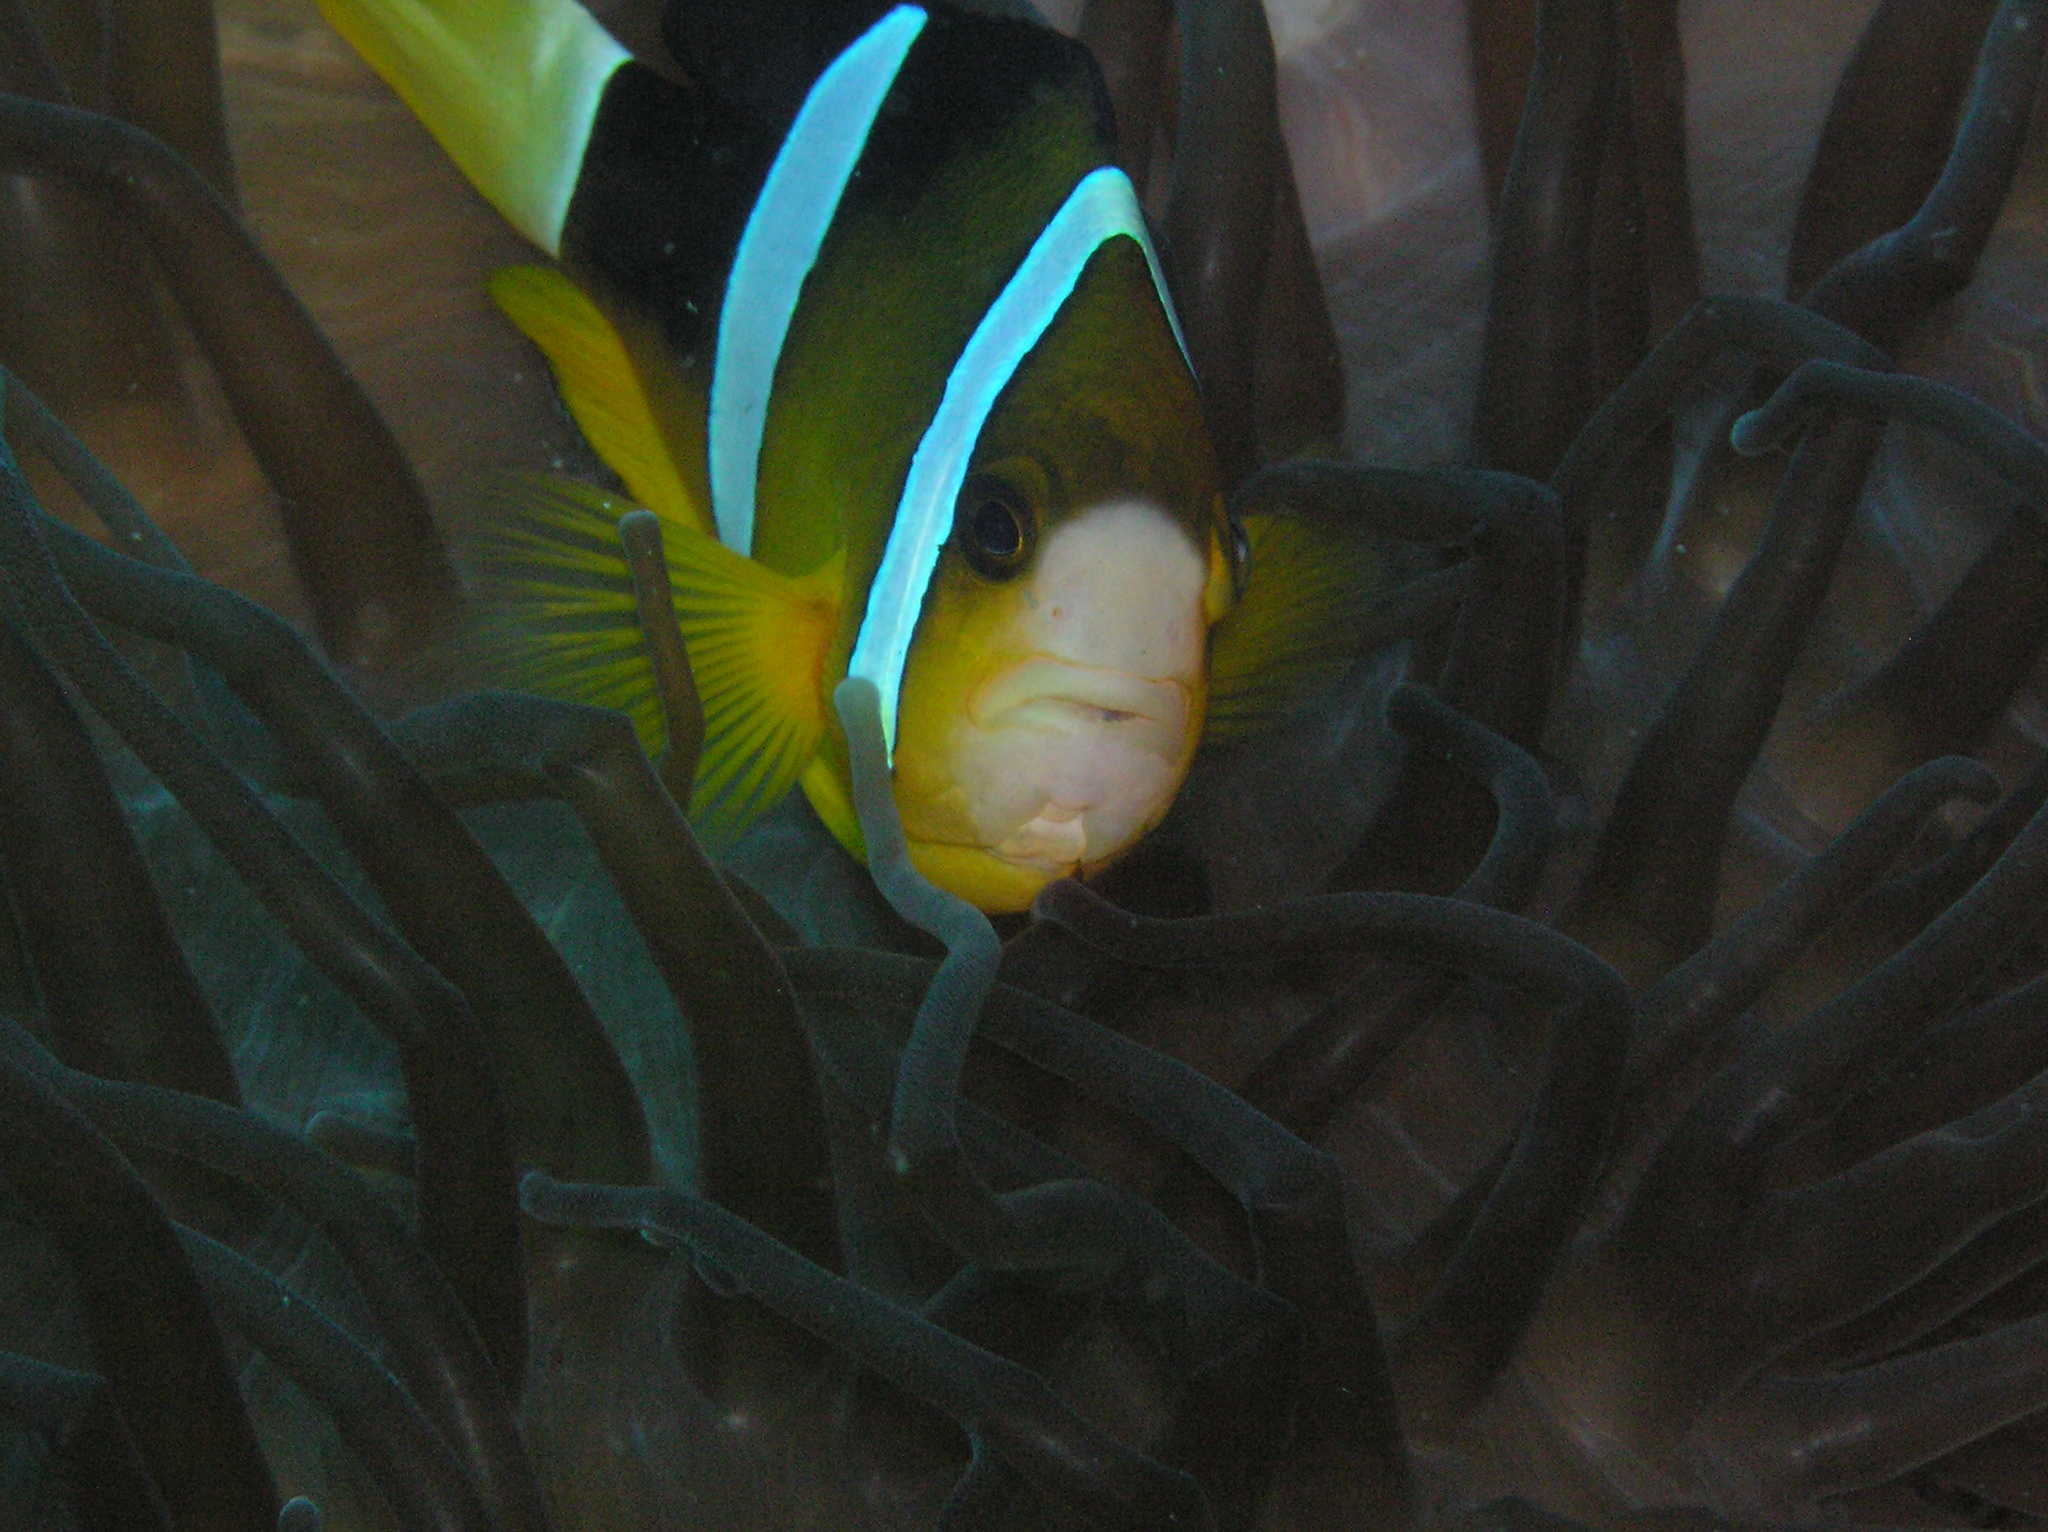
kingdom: Animalia
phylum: Chordata
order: Perciformes
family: Pomacentridae
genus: Amphiprion
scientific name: Amphiprion clarkii
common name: Clark's anemonefish
